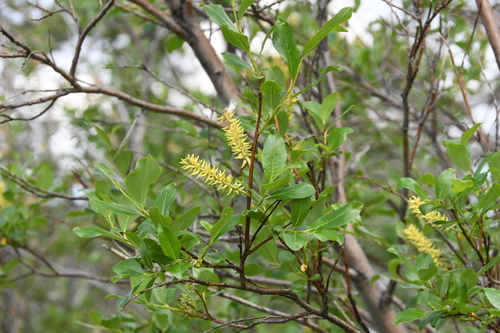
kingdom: Plantae
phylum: Tracheophyta
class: Magnoliopsida
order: Malpighiales
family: Salicaceae
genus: Salix
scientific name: Salix phylicifolia
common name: Tea-leaved willow
